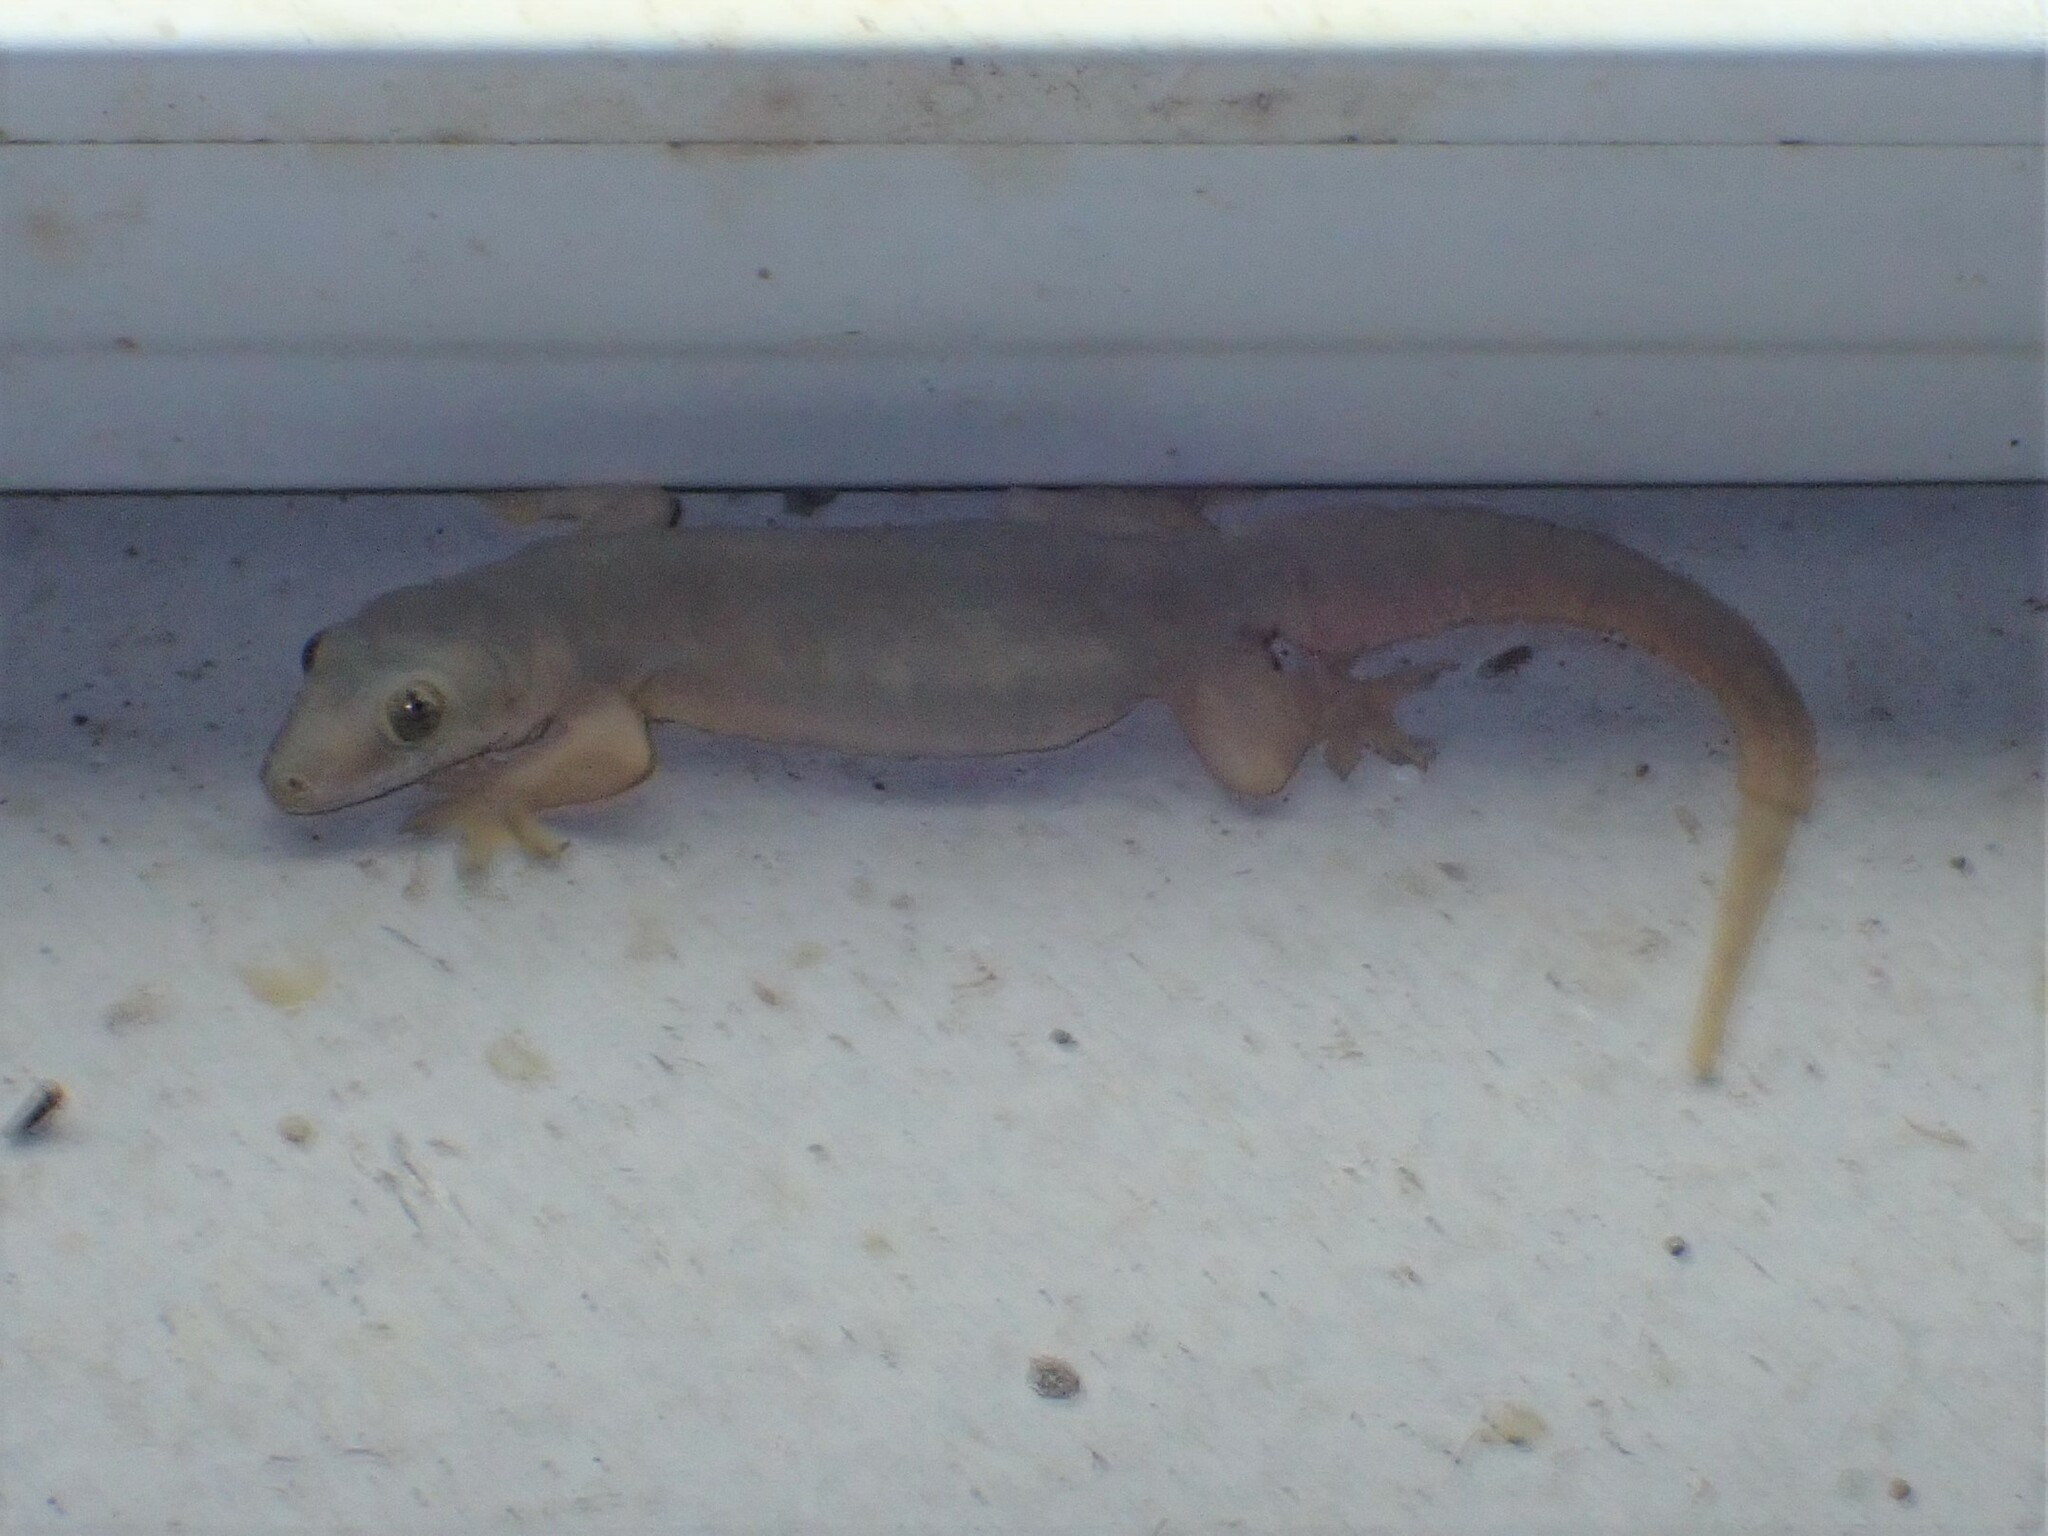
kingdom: Animalia
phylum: Chordata
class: Squamata
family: Gekkonidae
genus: Hemidactylus
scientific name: Hemidactylus platyurus
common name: Flat-tailed house gecko
